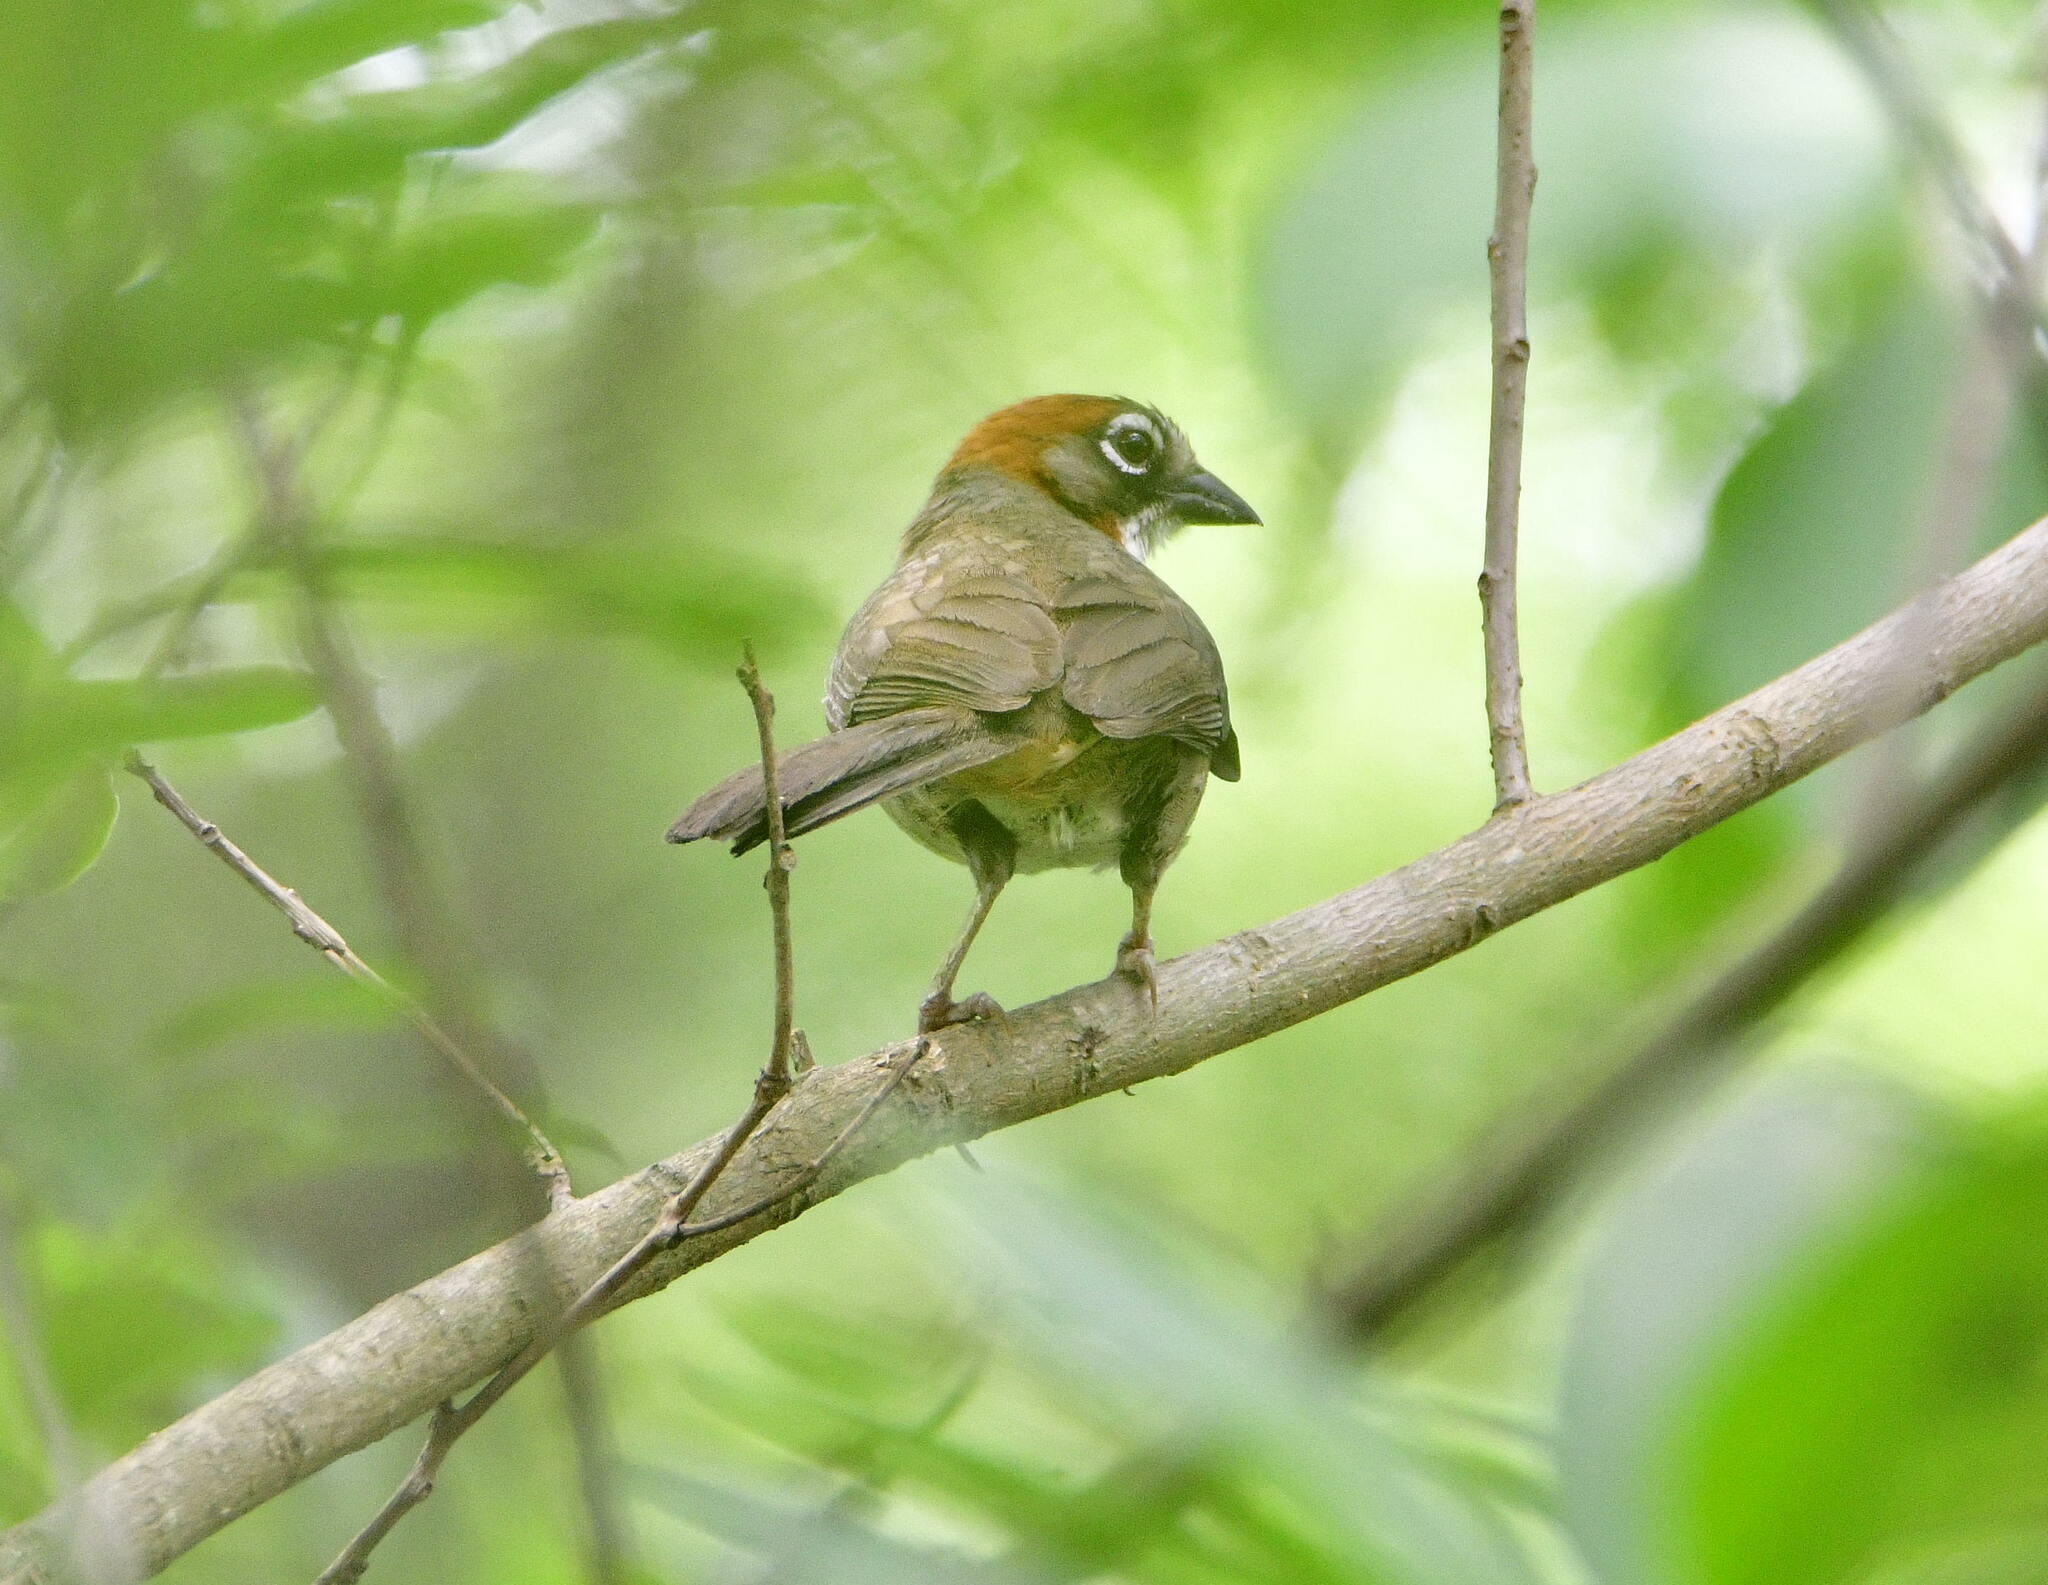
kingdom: Animalia
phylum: Chordata
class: Aves
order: Passeriformes
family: Passerellidae
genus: Melozone
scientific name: Melozone kieneri
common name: Rusty-crowned ground-sparrow
